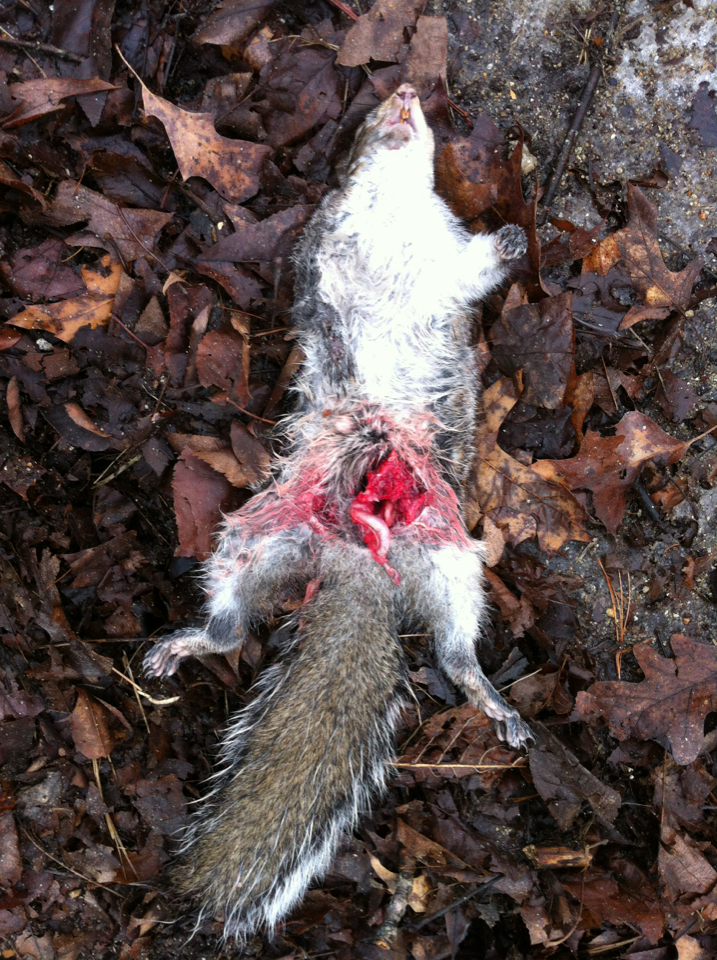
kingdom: Animalia
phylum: Chordata
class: Mammalia
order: Rodentia
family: Sciuridae
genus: Sciurus
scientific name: Sciurus carolinensis
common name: Eastern gray squirrel
